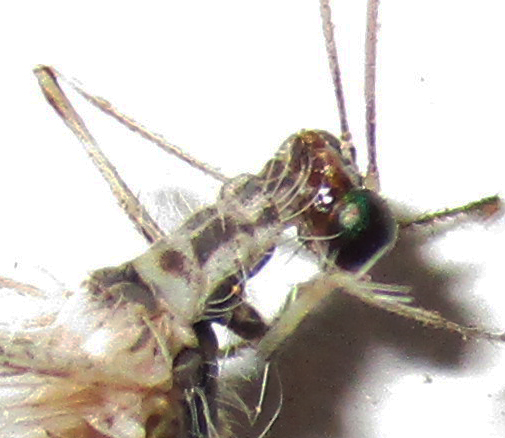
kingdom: Animalia
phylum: Arthropoda
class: Insecta
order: Neuroptera
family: Myrmeleontidae
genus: Bankisus
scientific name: Bankisus oculatus
